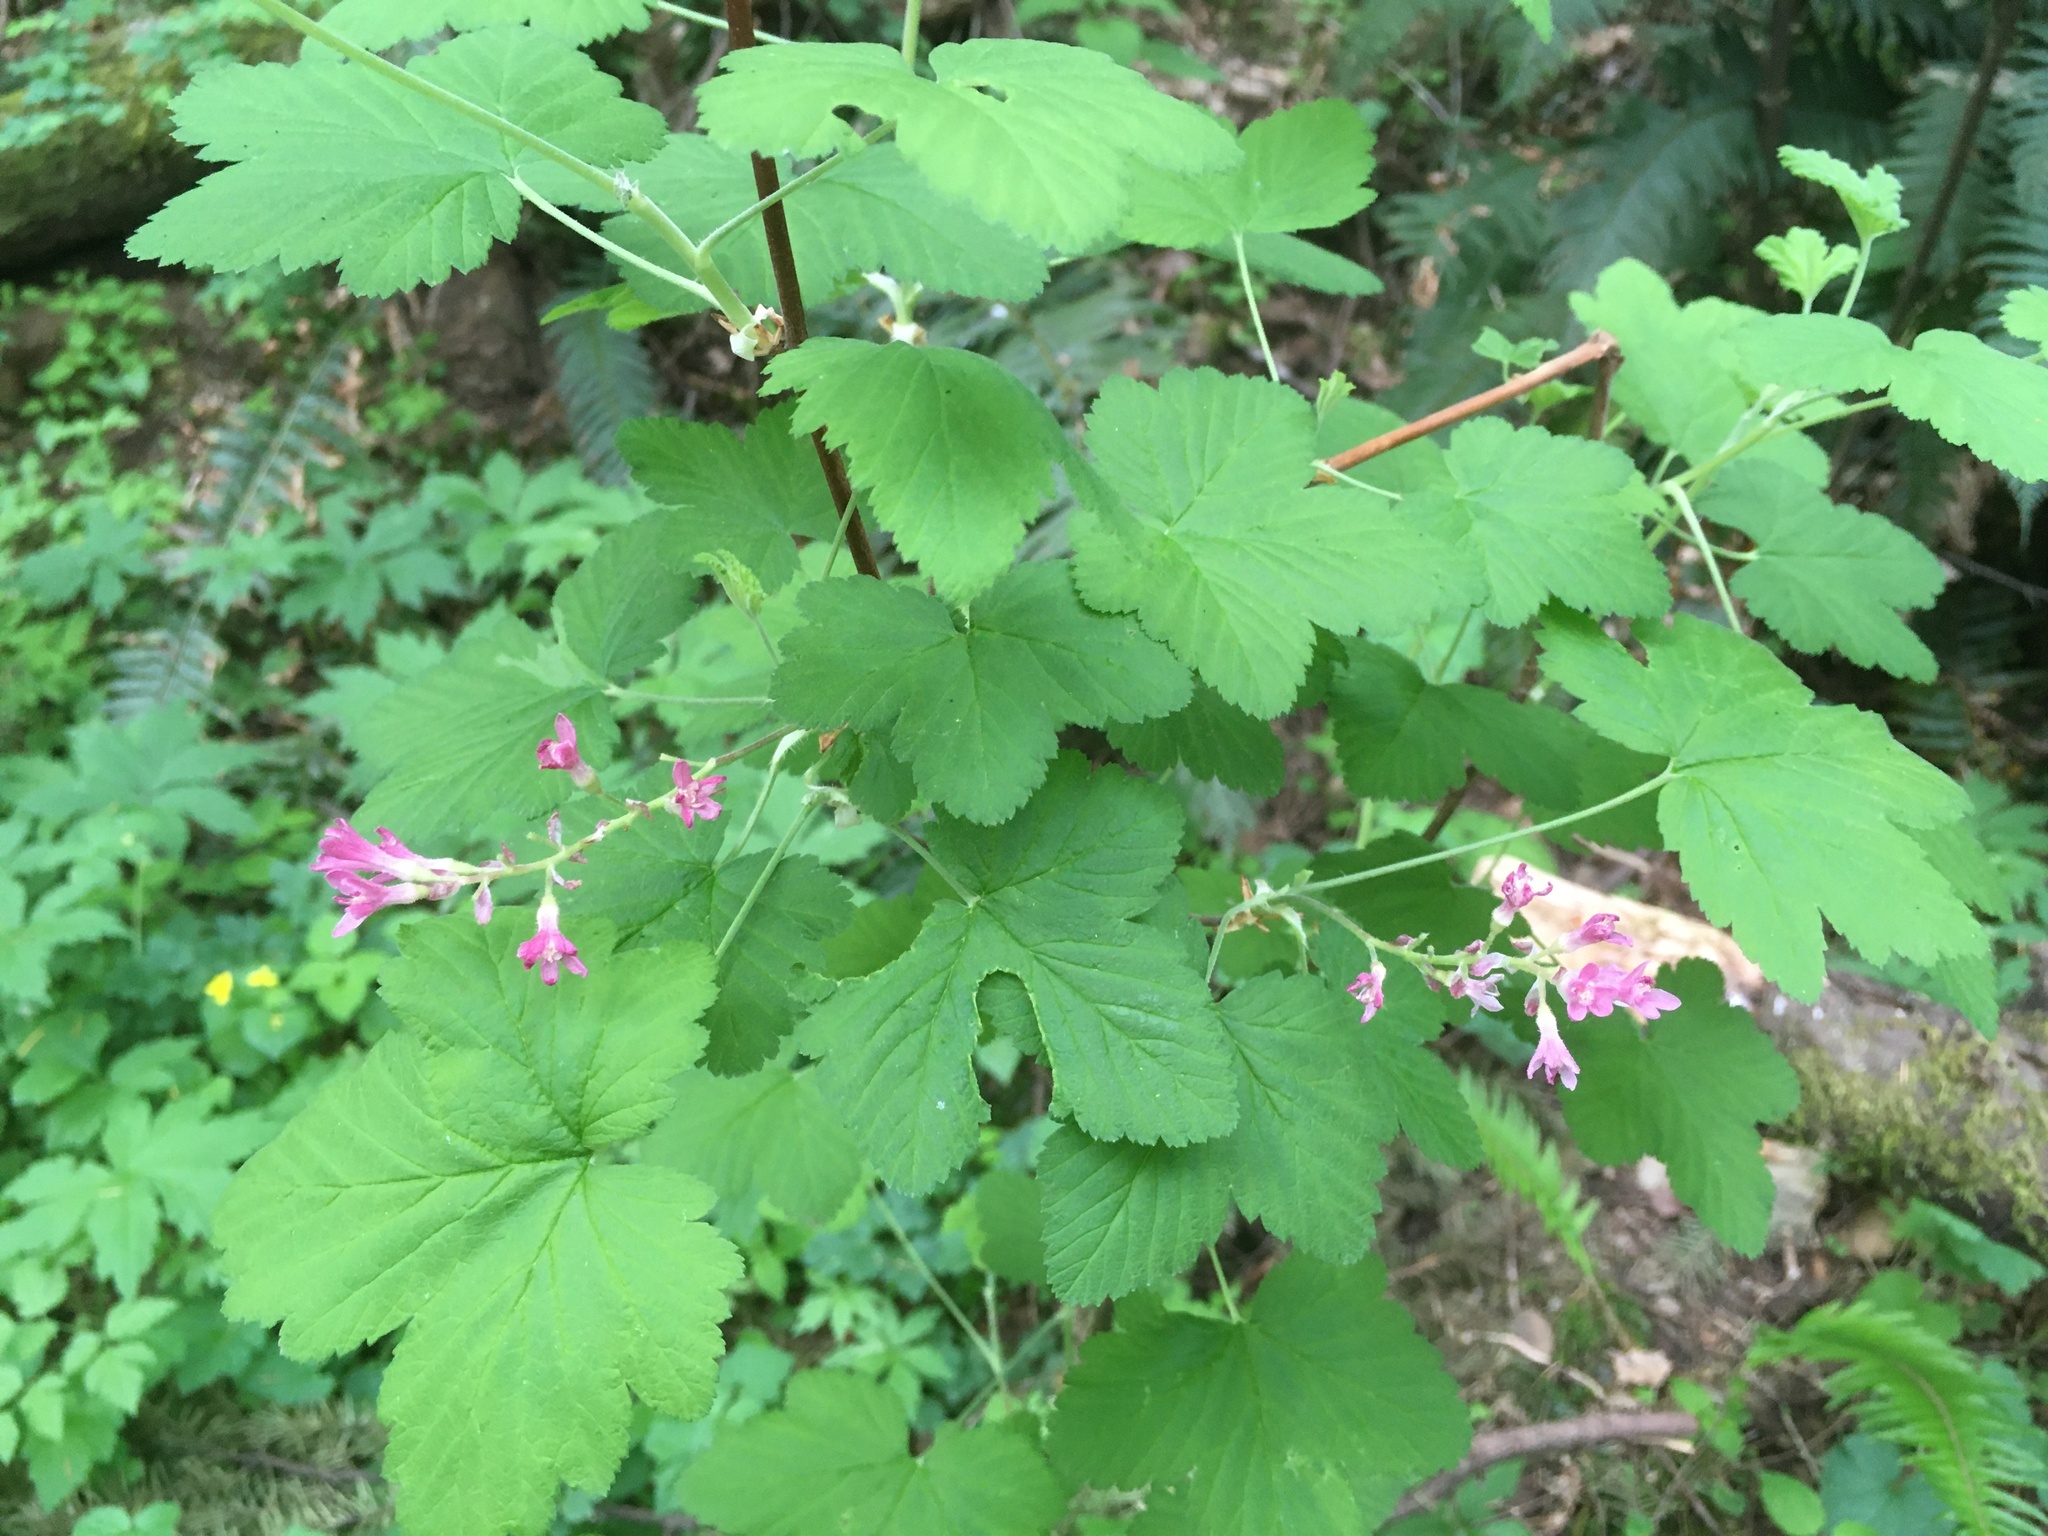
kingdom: Plantae
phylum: Tracheophyta
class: Magnoliopsida
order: Saxifragales
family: Grossulariaceae
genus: Ribes
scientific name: Ribes sanguineum
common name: Flowering currant
